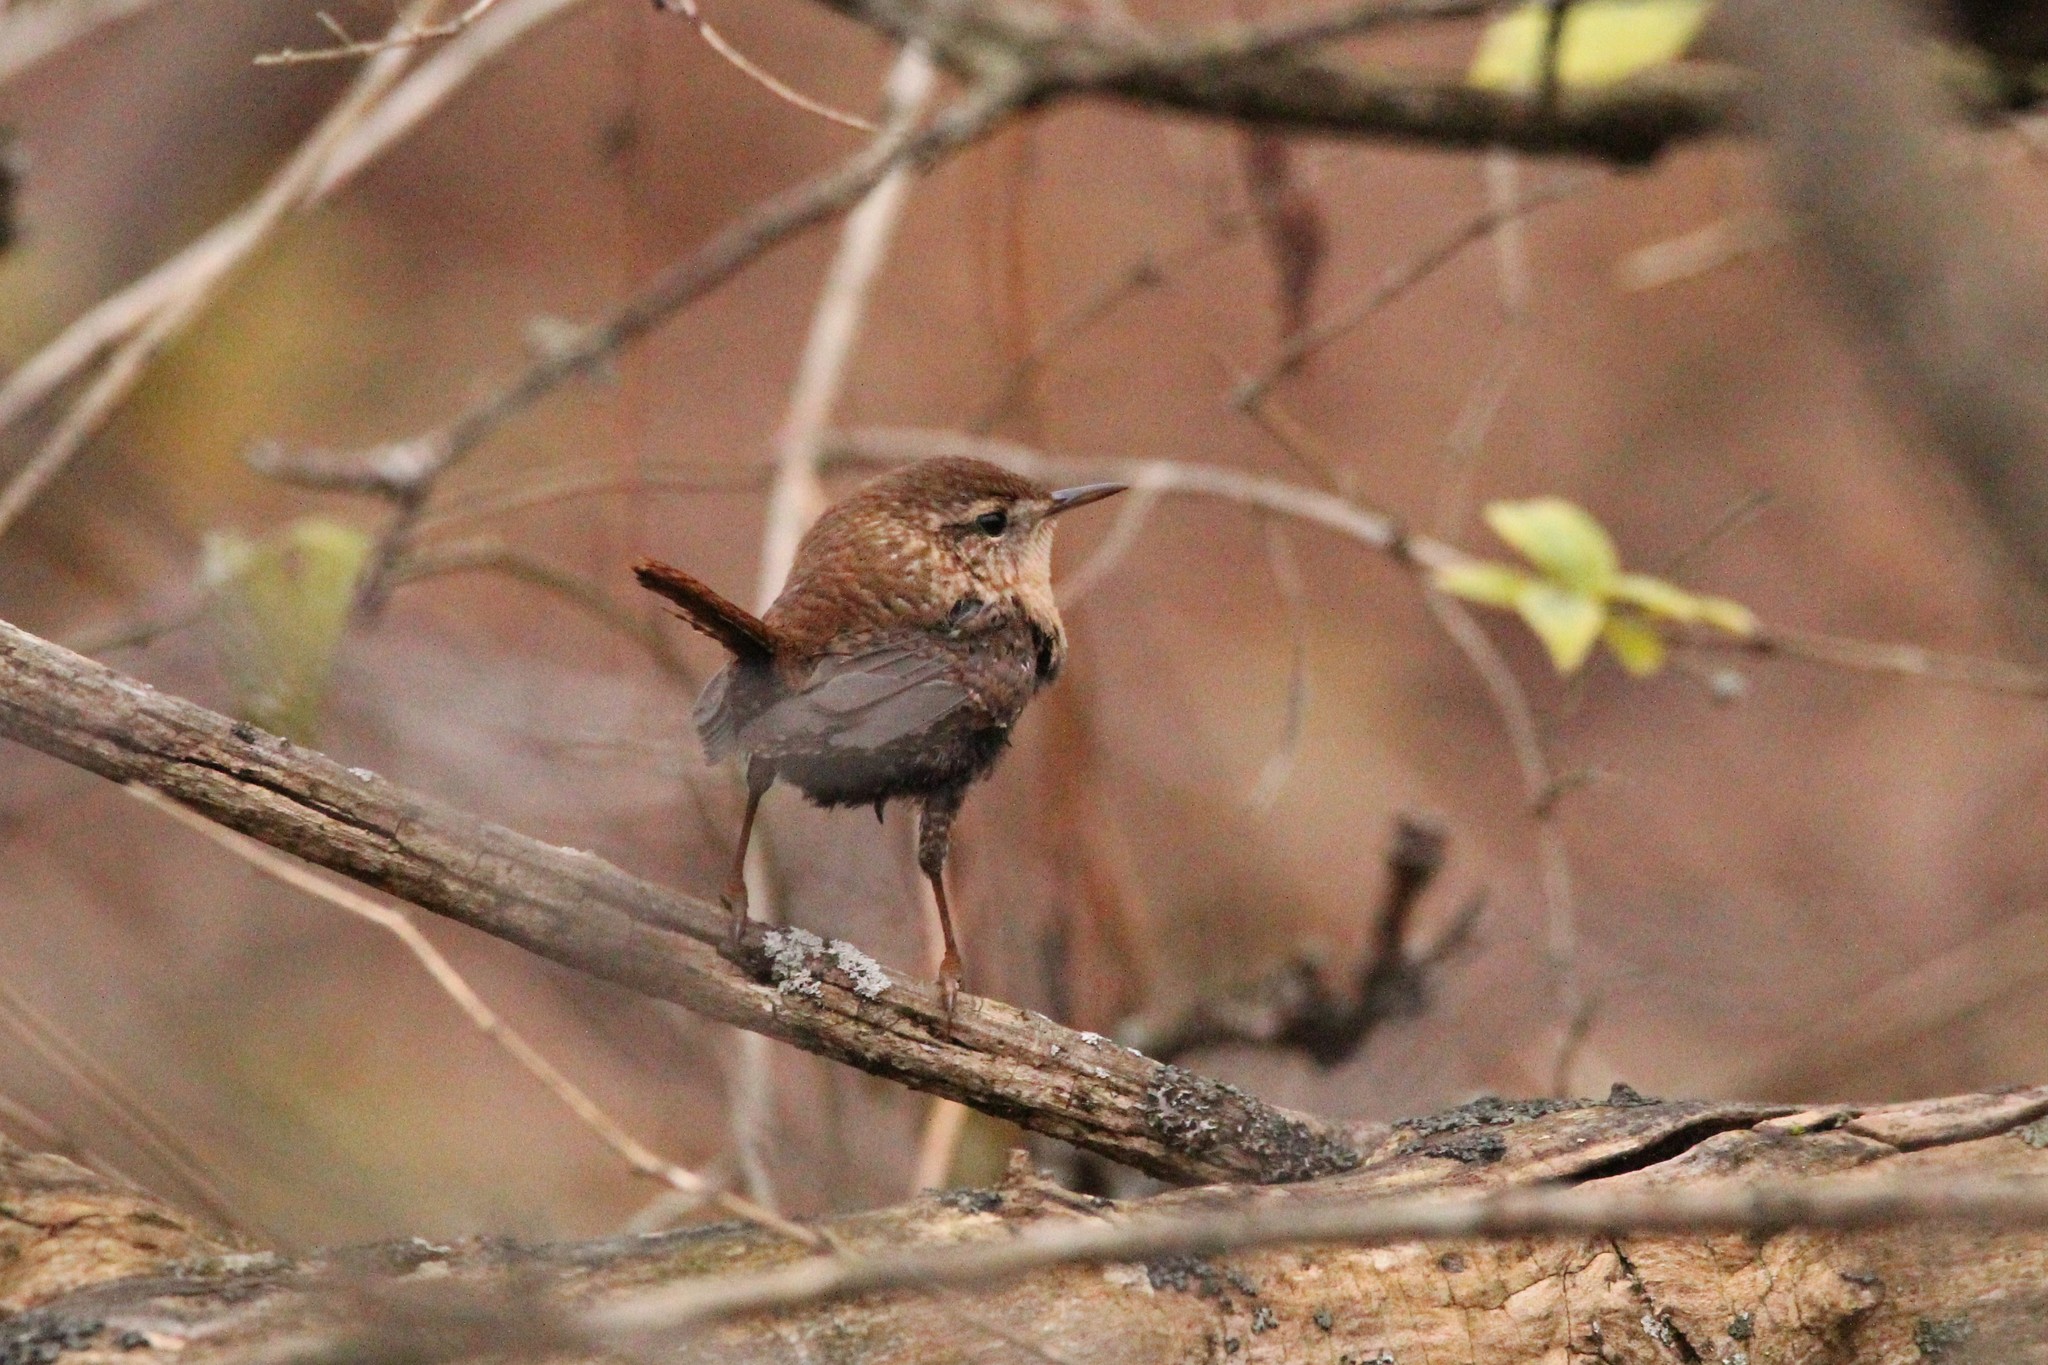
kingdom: Animalia
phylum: Chordata
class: Aves
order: Passeriformes
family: Troglodytidae
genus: Troglodytes
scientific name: Troglodytes hiemalis
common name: Winter wren
